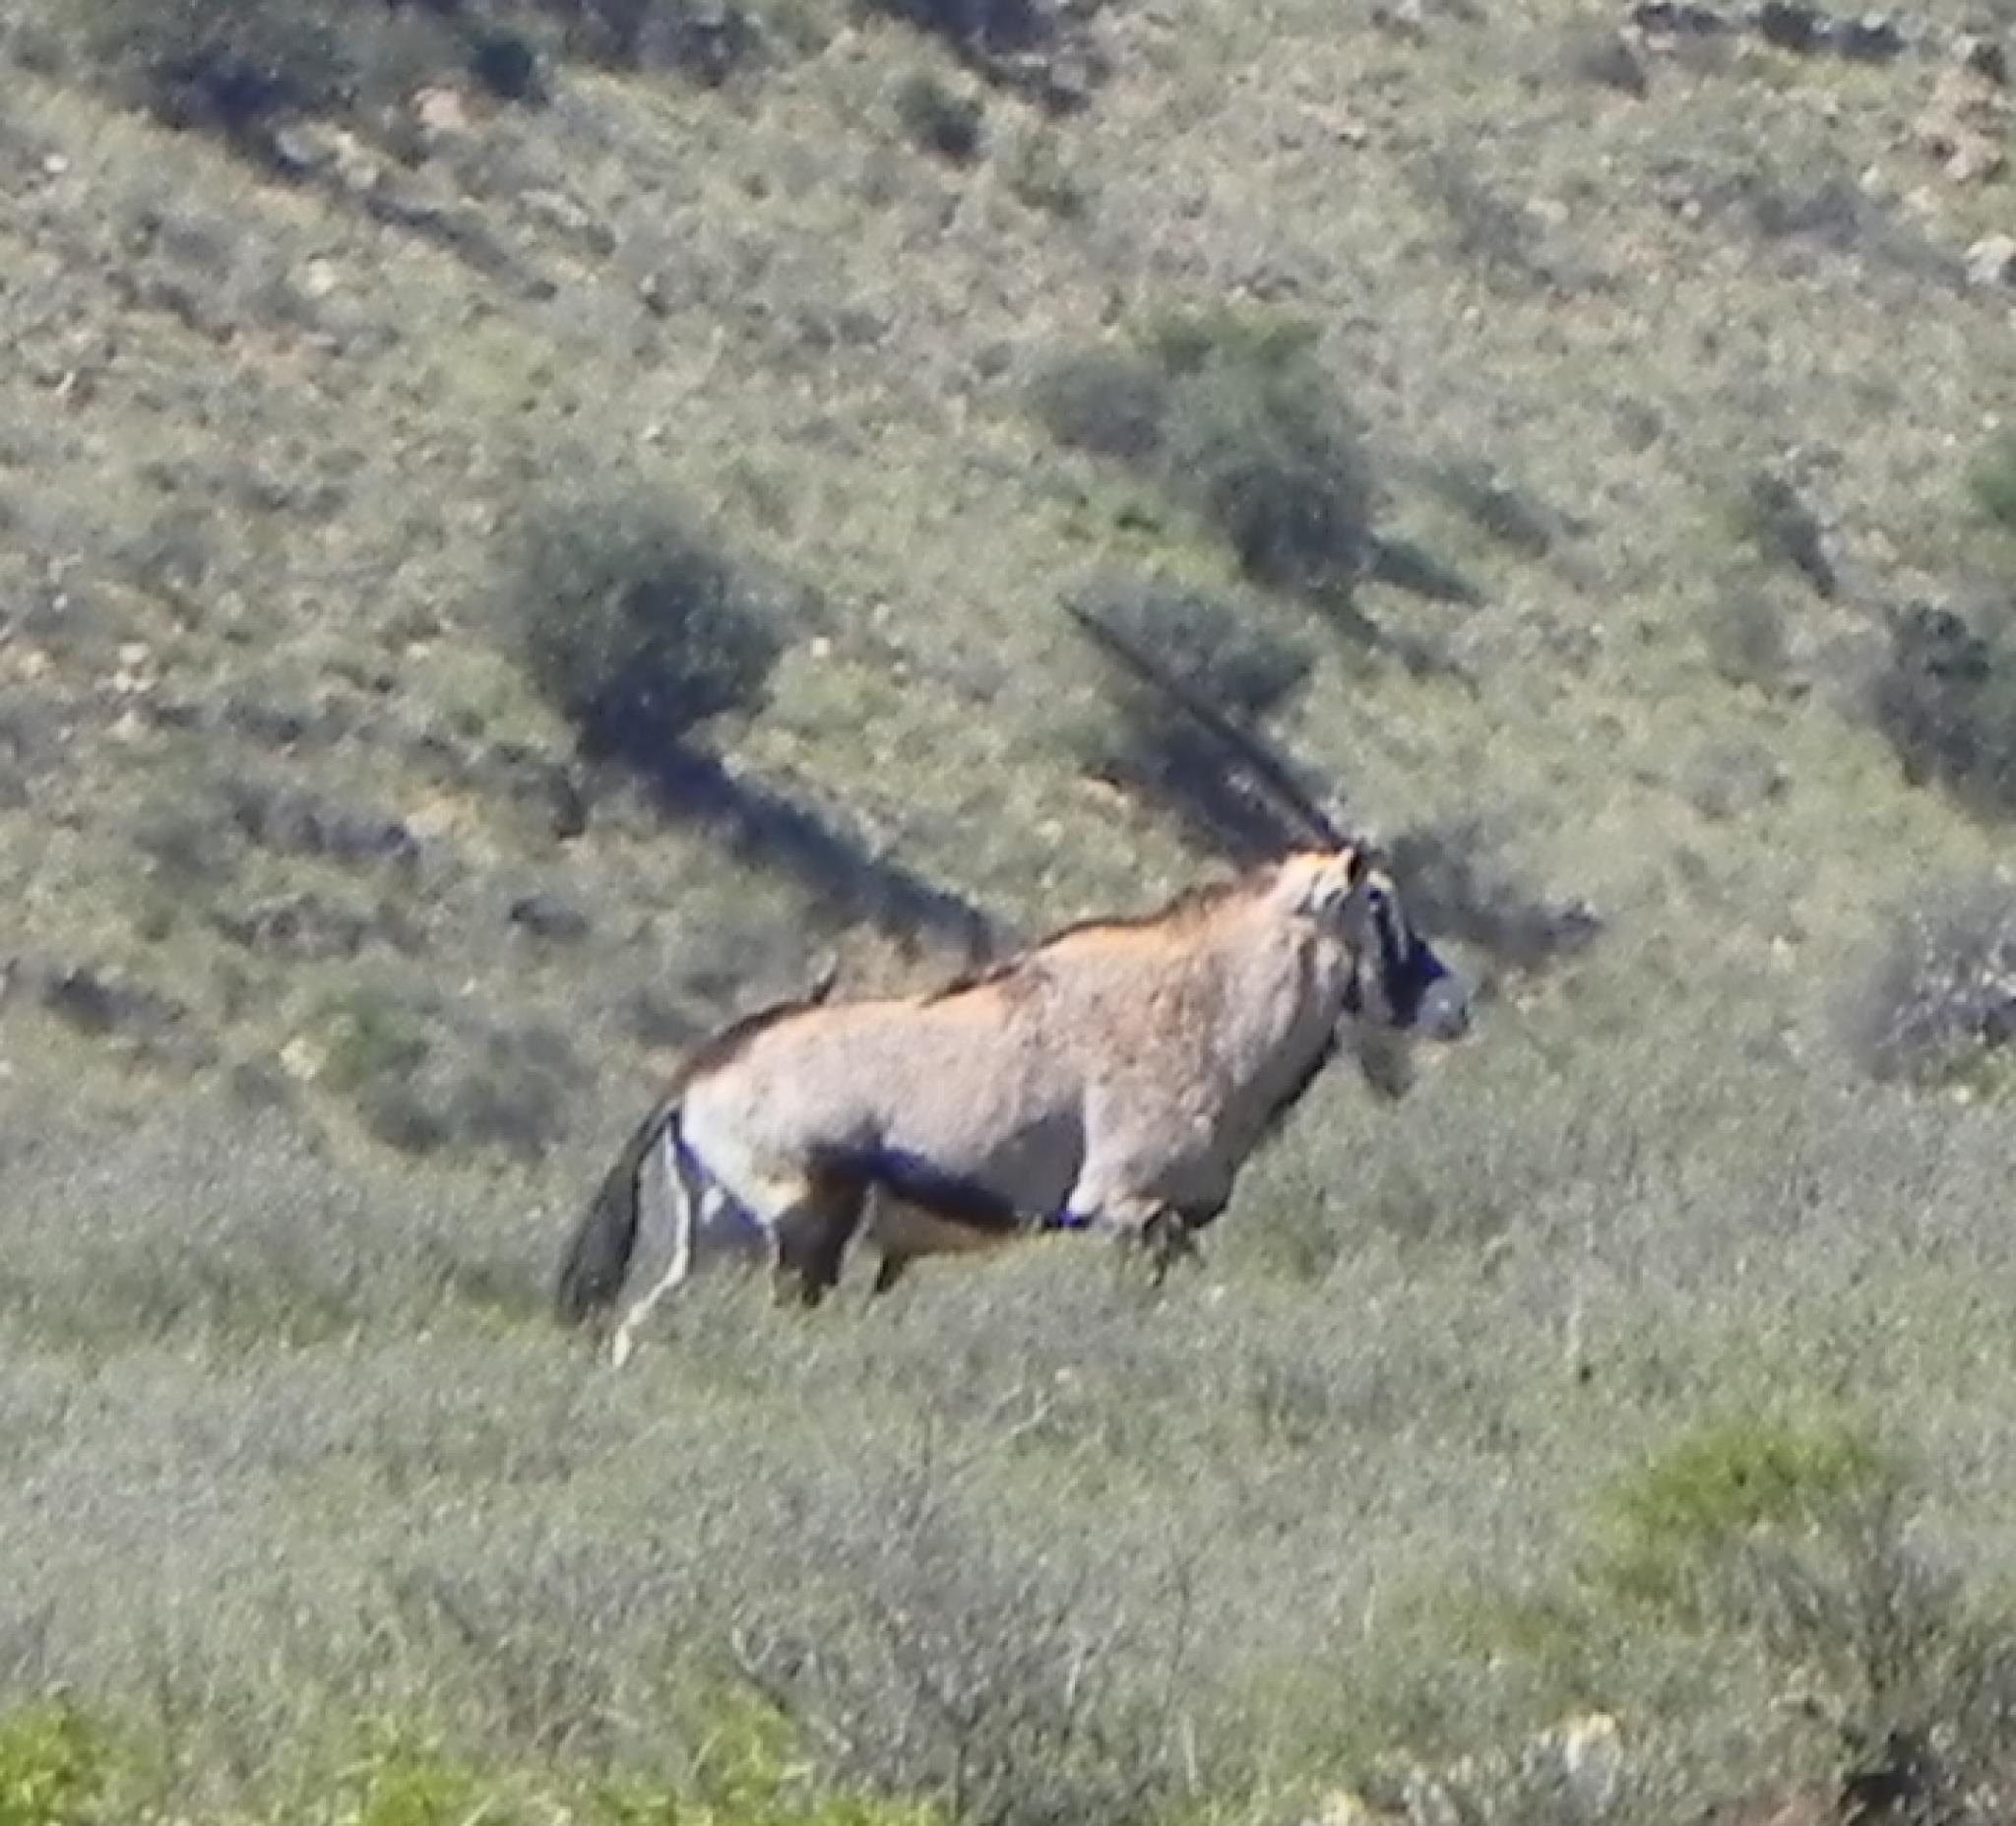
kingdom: Animalia
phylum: Chordata
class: Mammalia
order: Artiodactyla
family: Bovidae
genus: Oryx
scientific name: Oryx gazella
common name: Gemsbok
